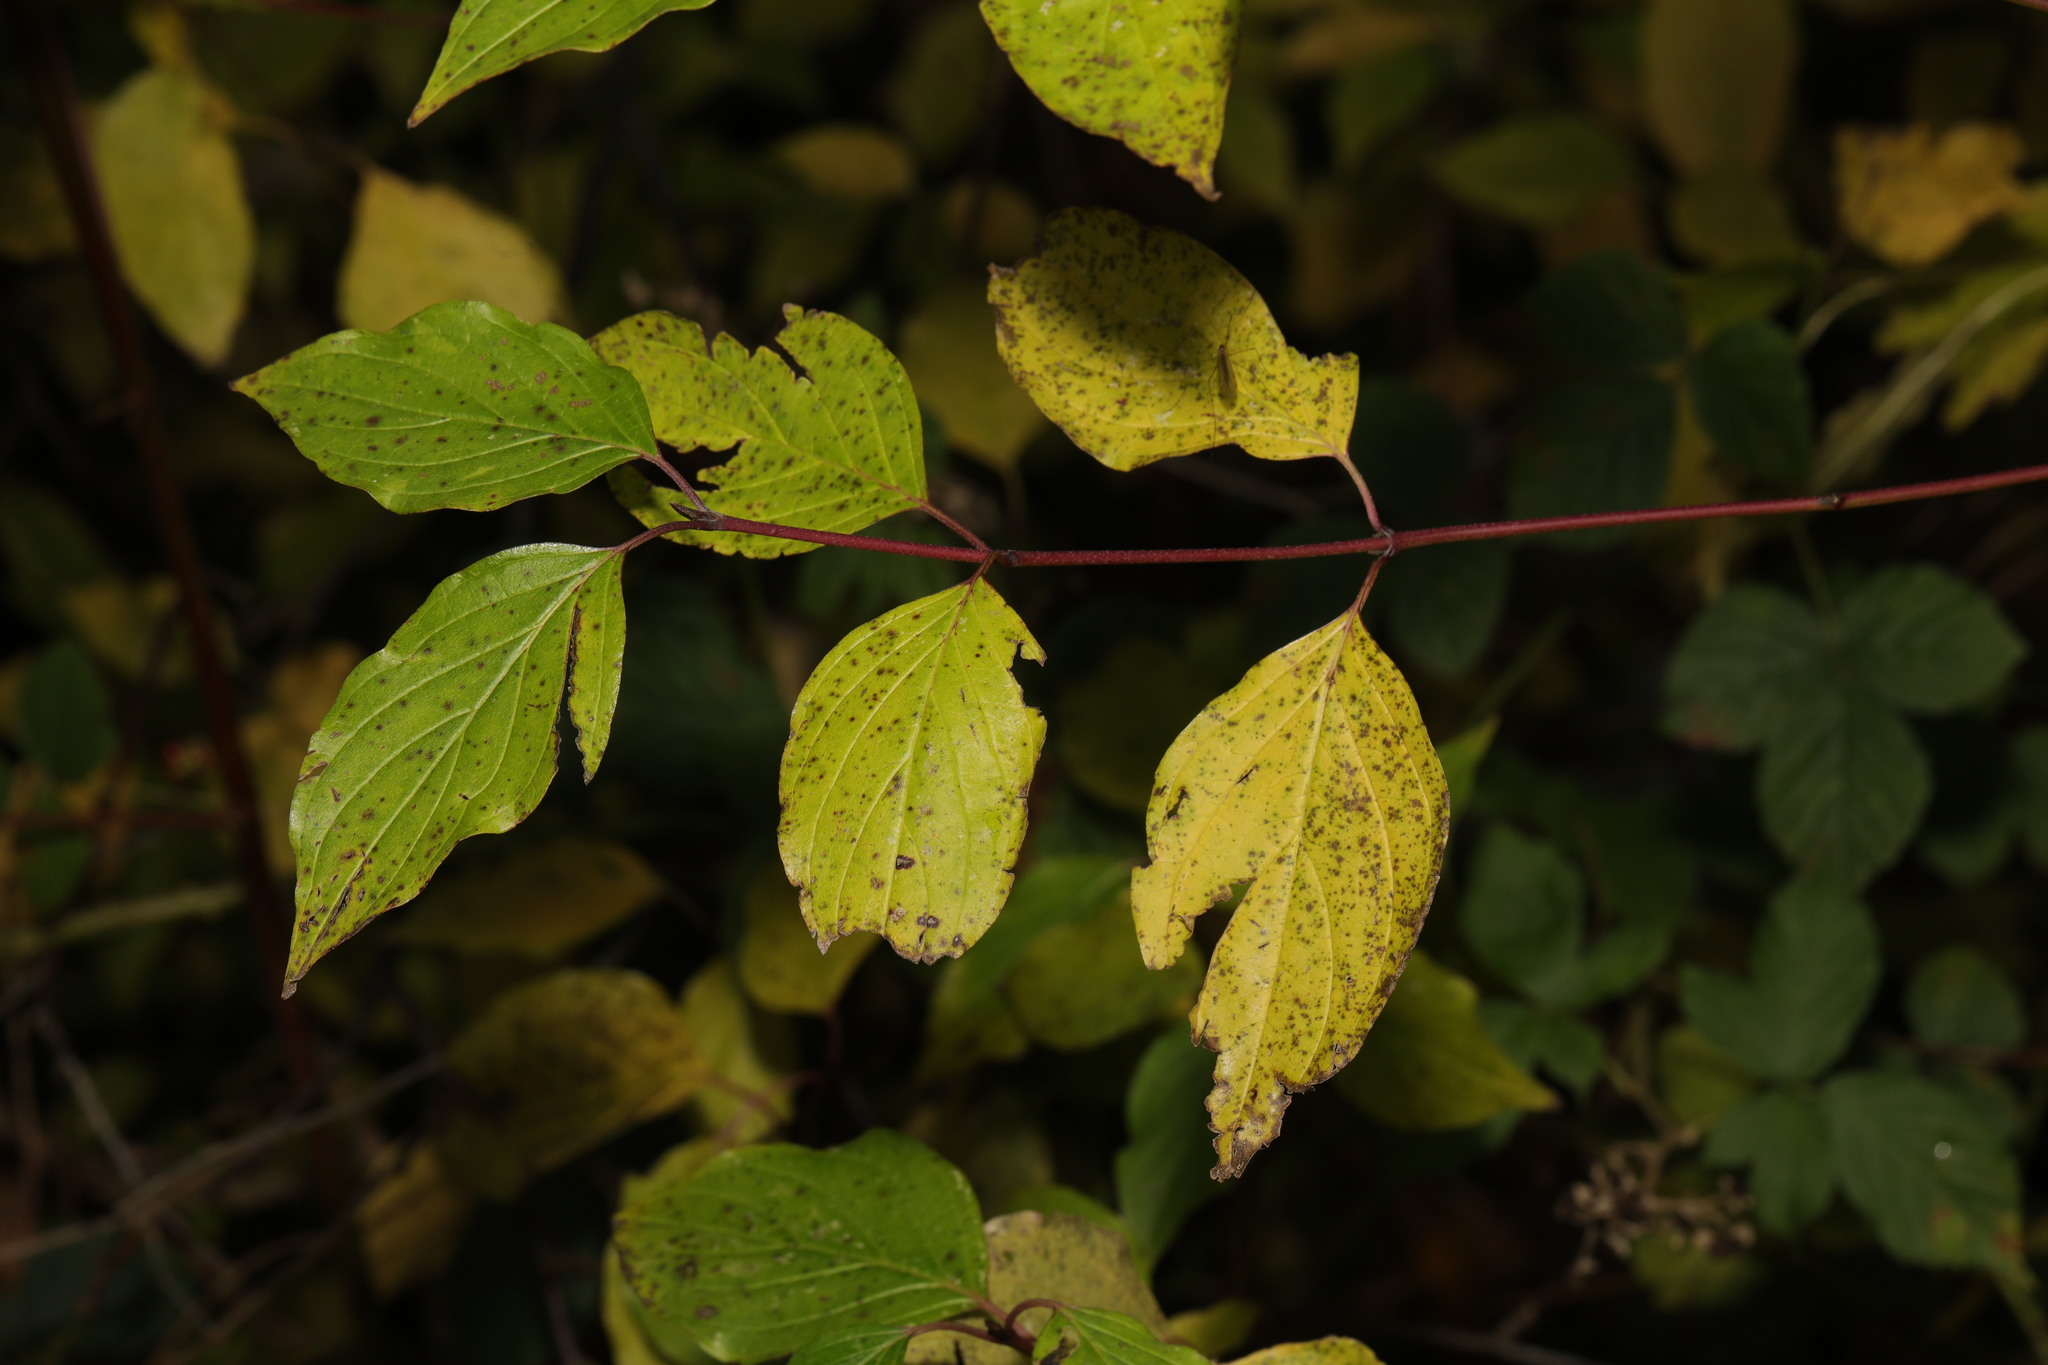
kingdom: Plantae
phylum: Tracheophyta
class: Magnoliopsida
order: Cornales
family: Cornaceae
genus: Cornus
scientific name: Cornus sanguinea
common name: Dogwood
